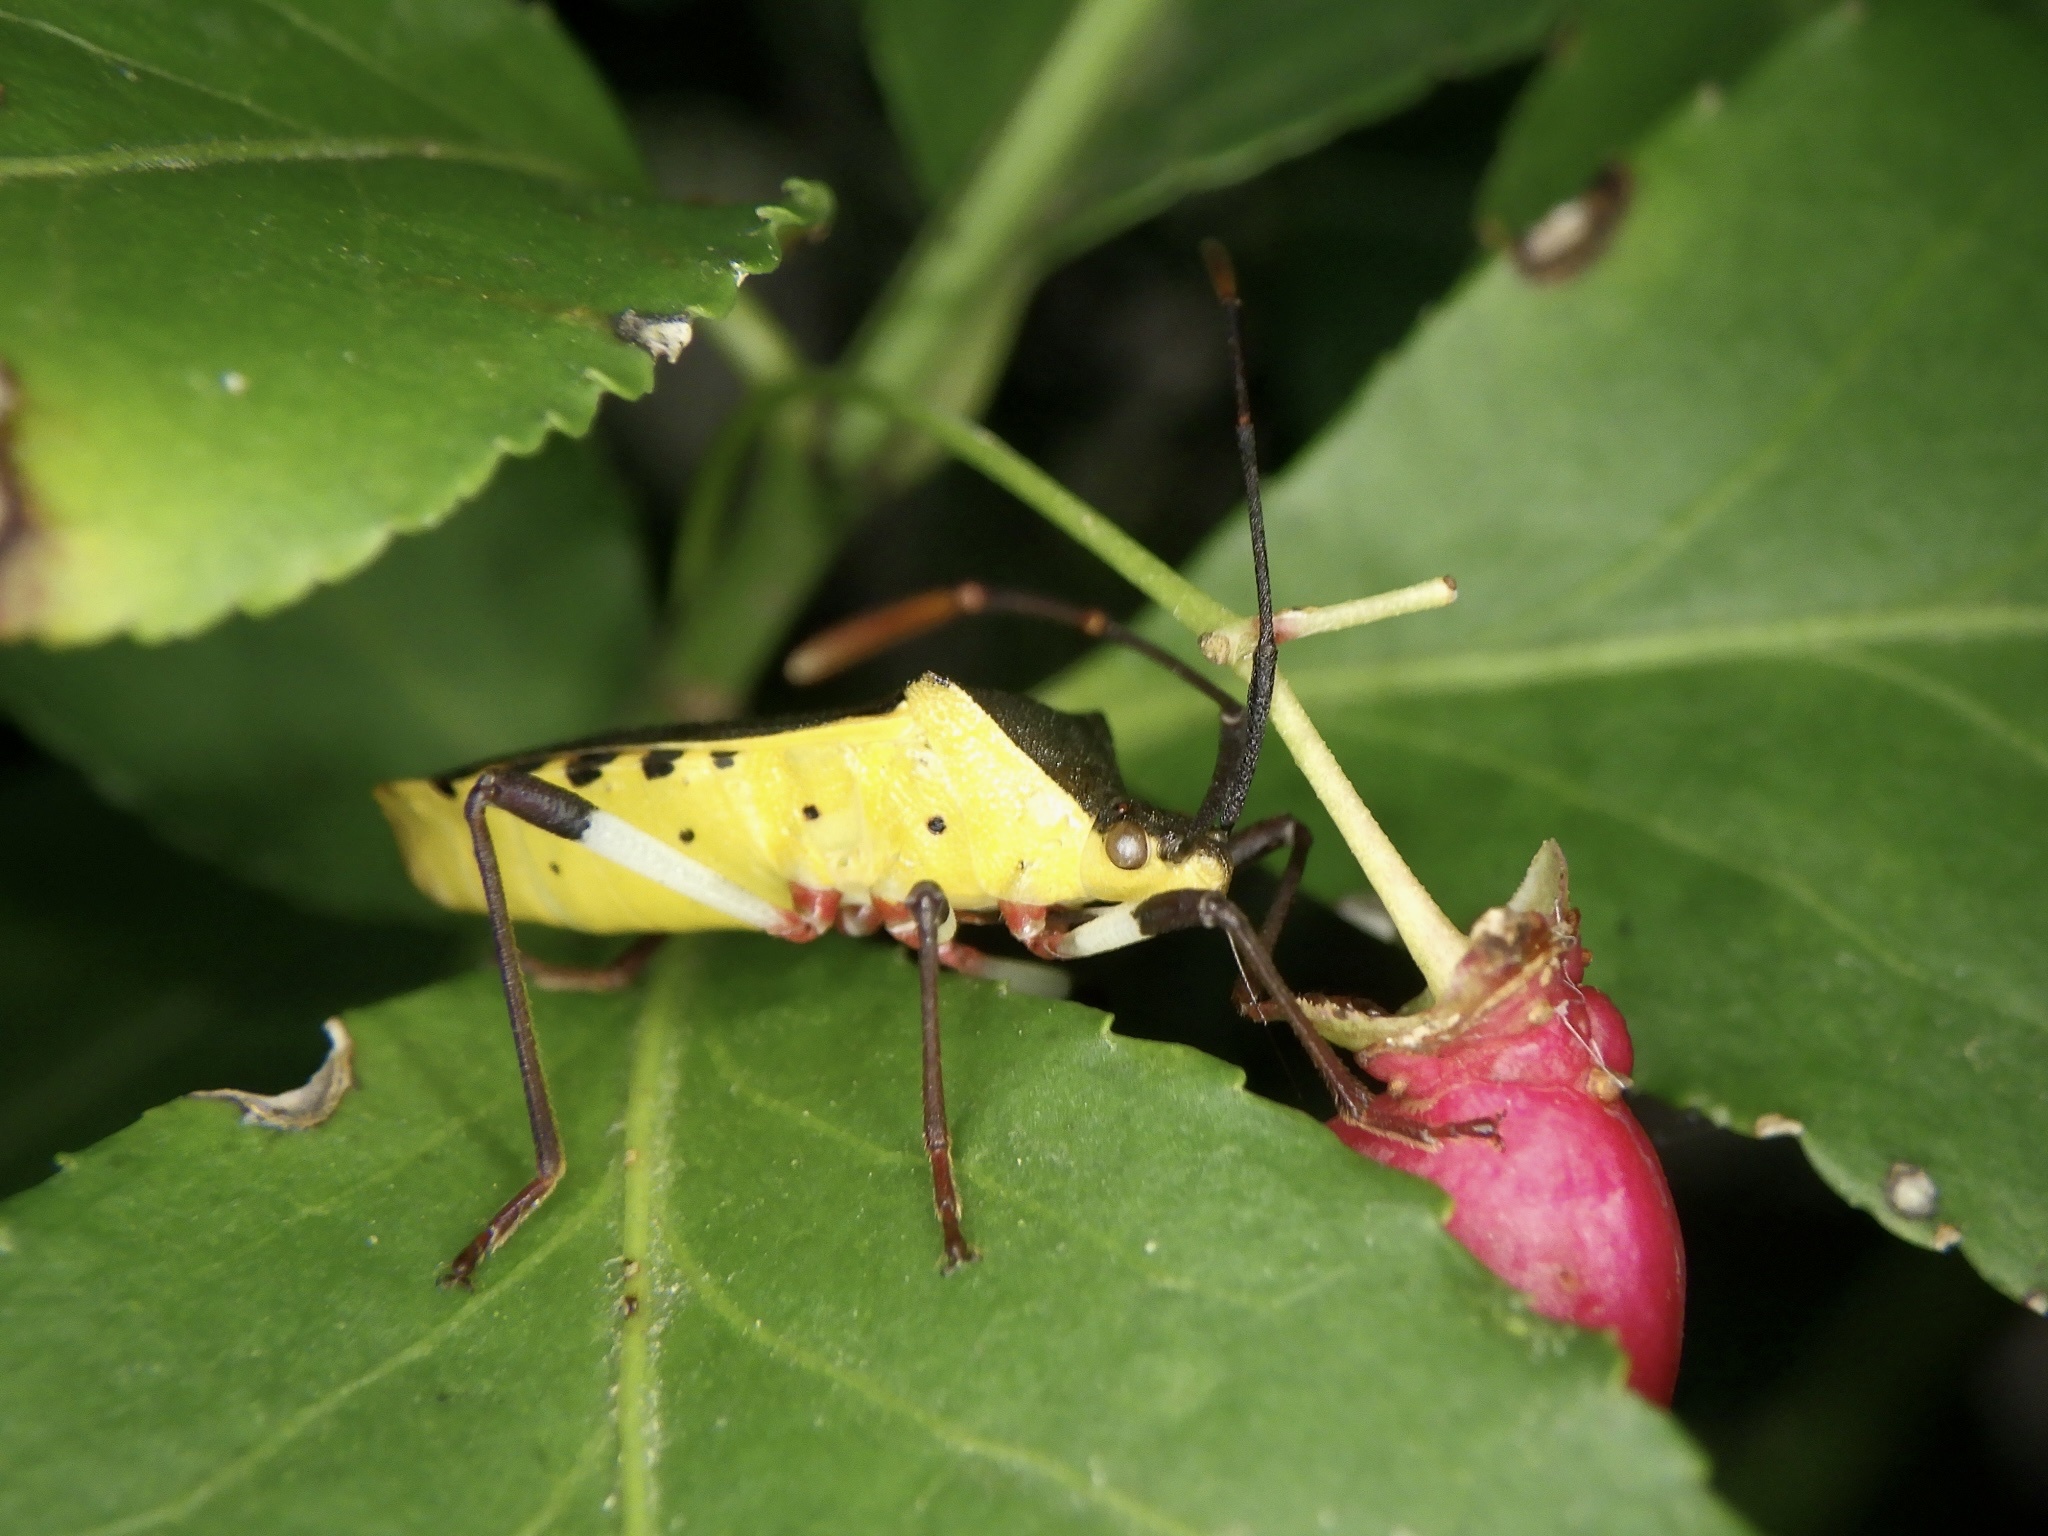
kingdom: Animalia
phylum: Arthropoda
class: Insecta
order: Hemiptera
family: Coreidae
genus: Plinachtus
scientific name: Plinachtus bicoloripes
